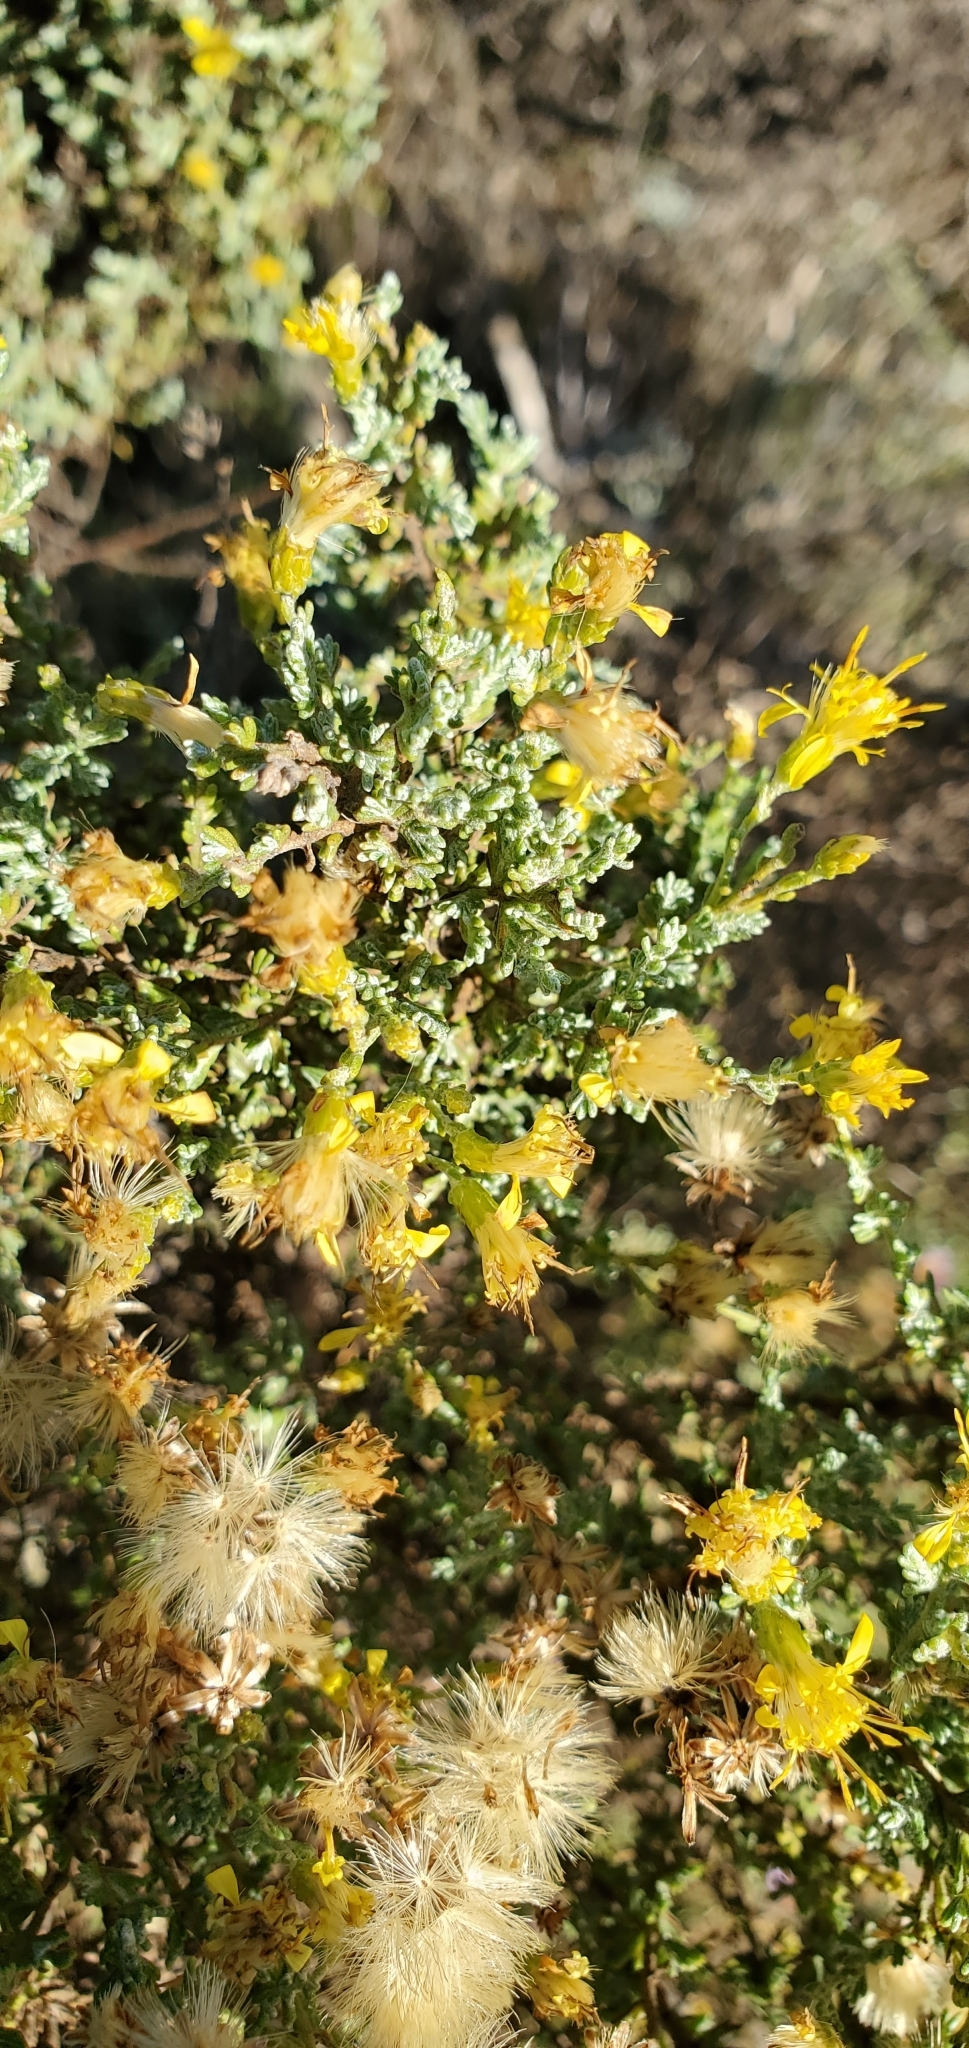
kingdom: Plantae
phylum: Tracheophyta
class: Magnoliopsida
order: Asterales
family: Asteraceae
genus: Ericameria
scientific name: Ericameria ericoides
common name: California goldenbush
